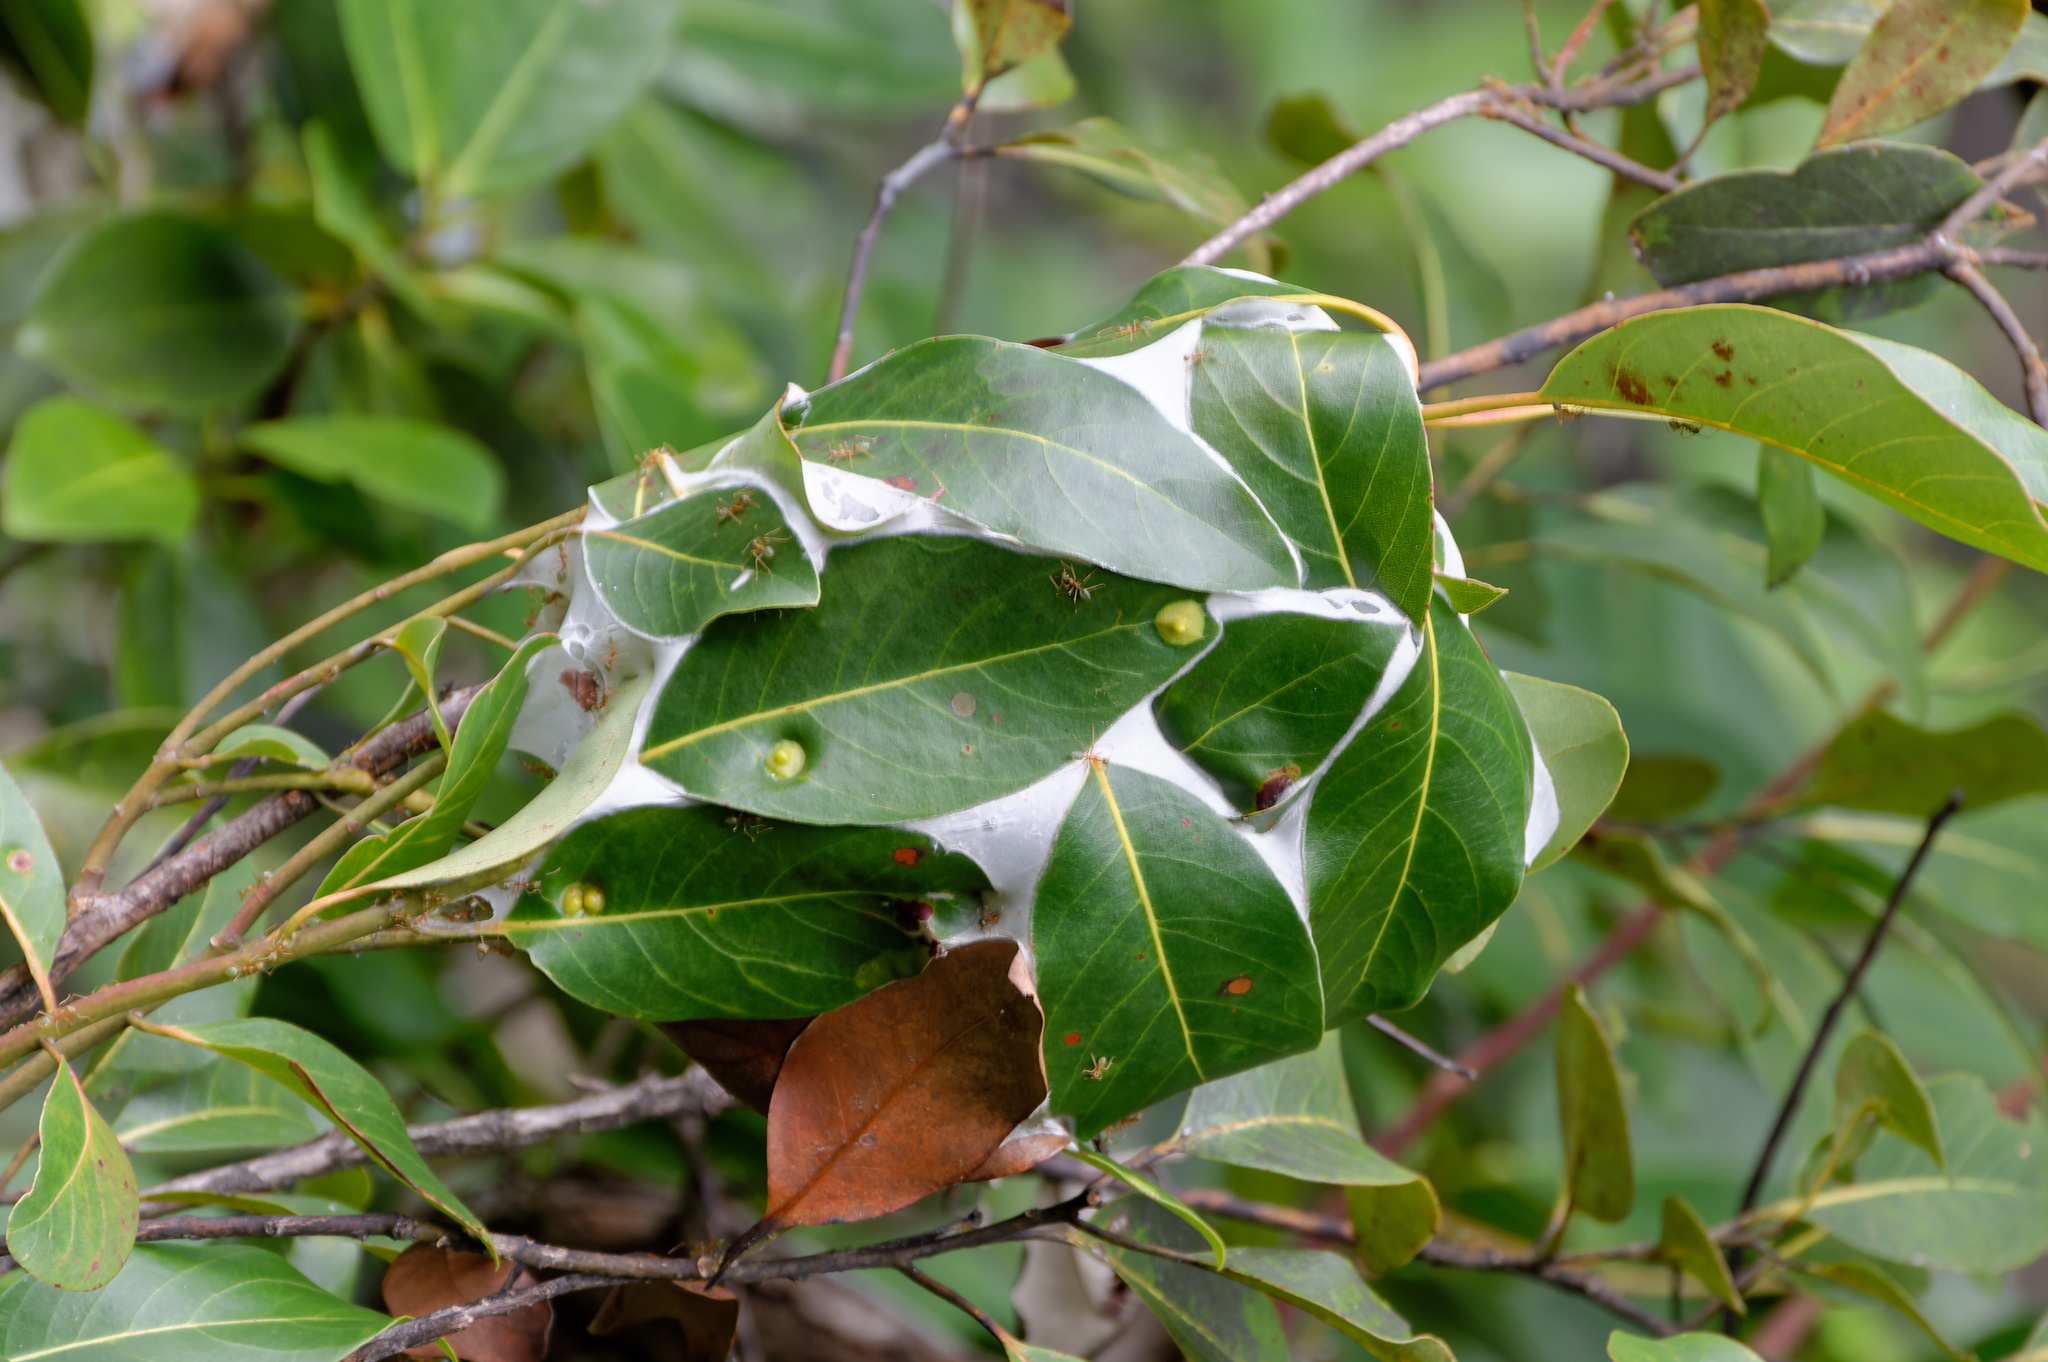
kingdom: Animalia
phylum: Arthropoda
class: Insecta
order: Hymenoptera
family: Formicidae
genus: Oecophylla
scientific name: Oecophylla smaragdina
